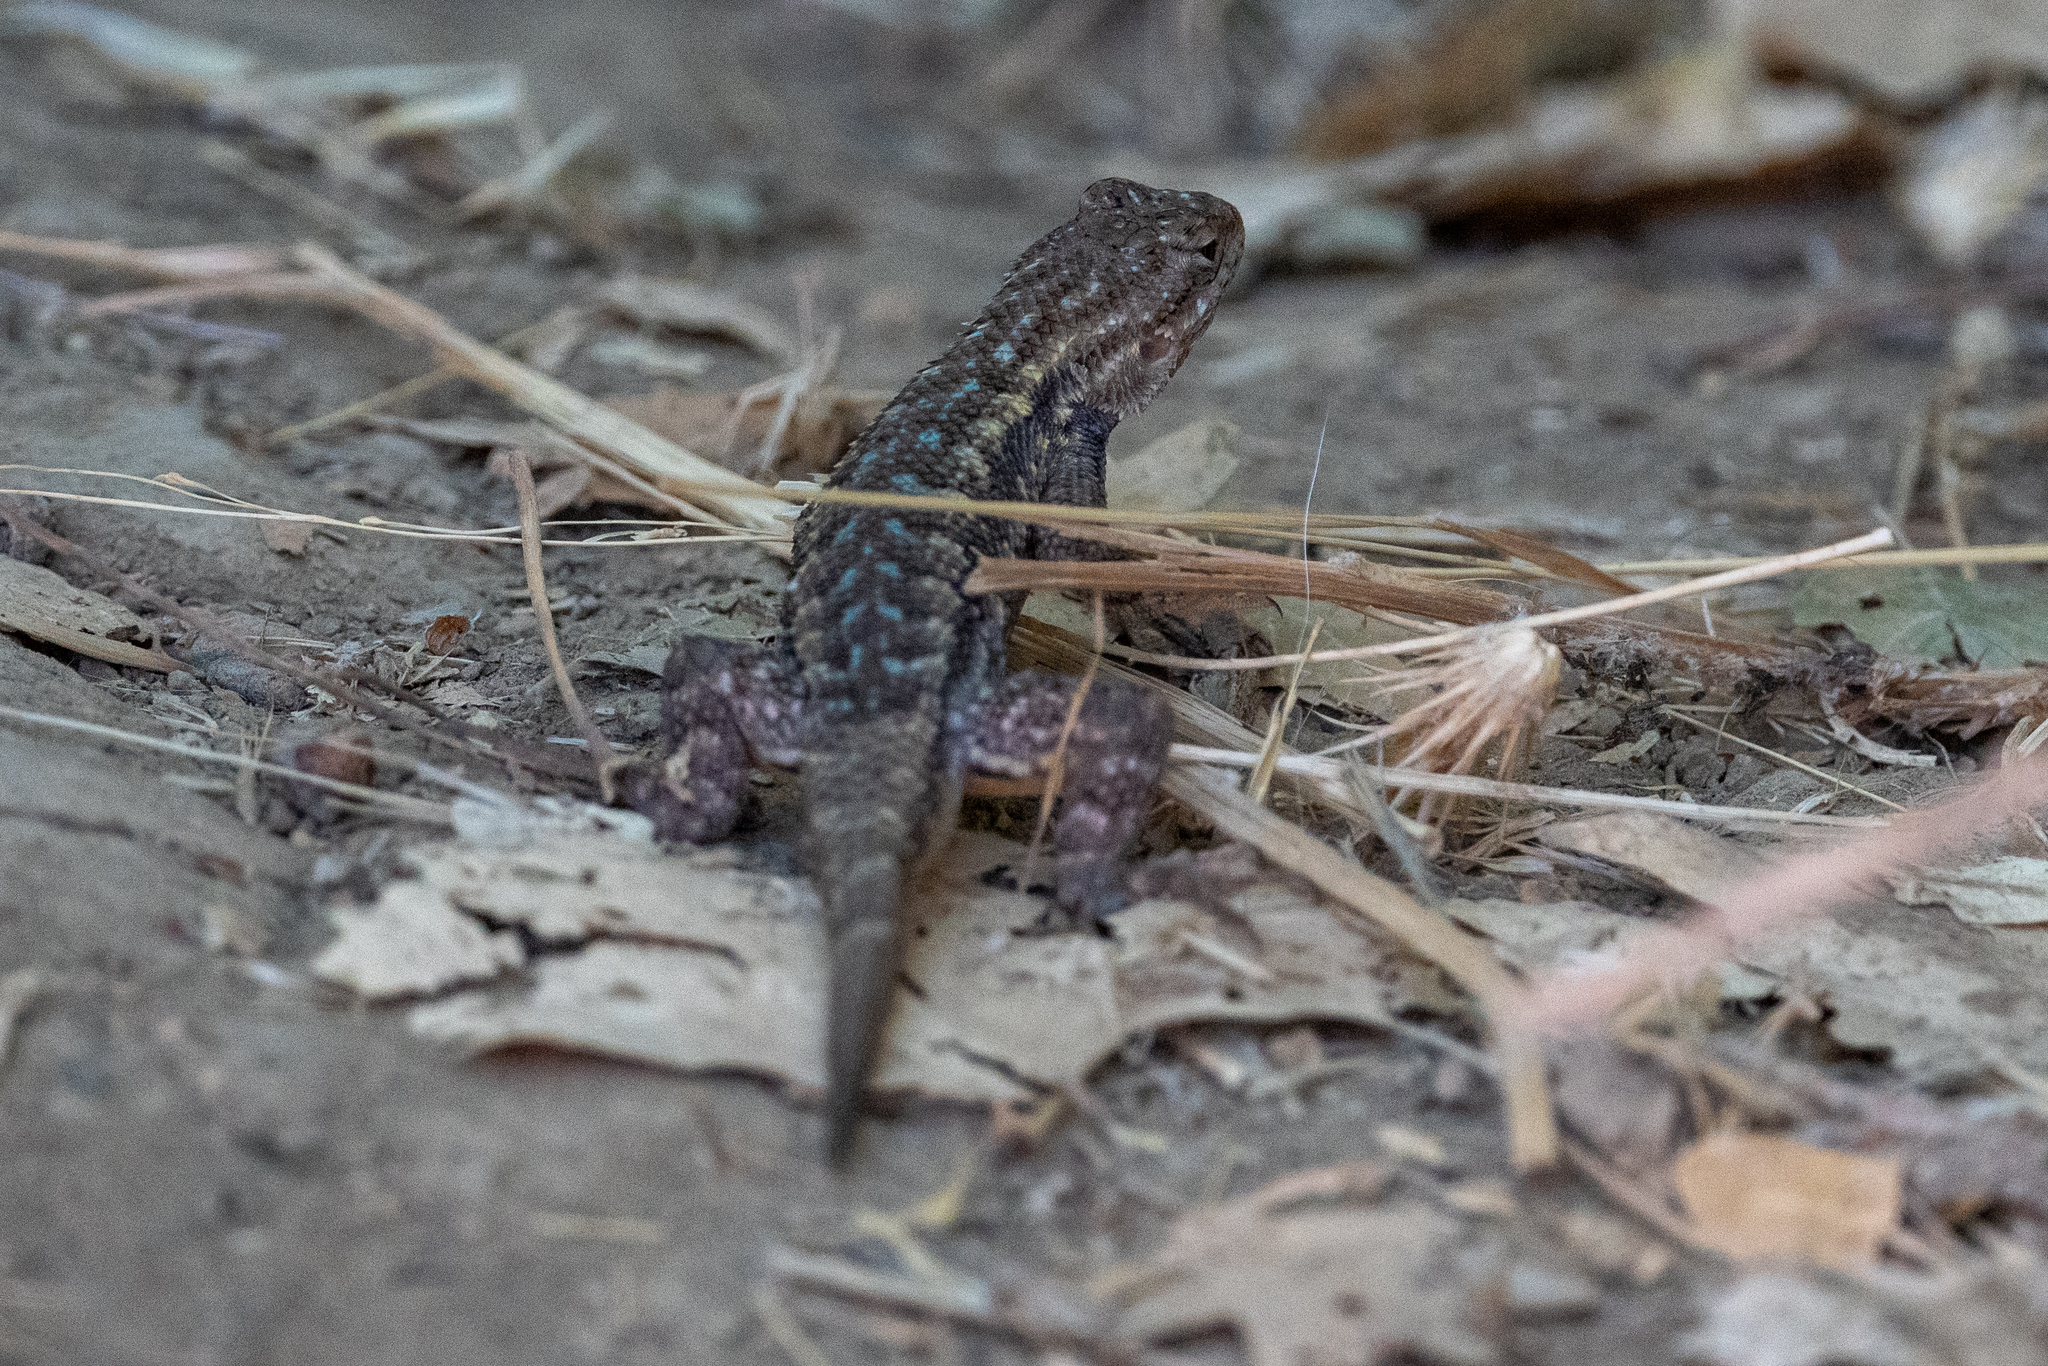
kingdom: Animalia
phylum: Chordata
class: Squamata
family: Phrynosomatidae
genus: Sceloporus
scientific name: Sceloporus occidentalis
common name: Western fence lizard
